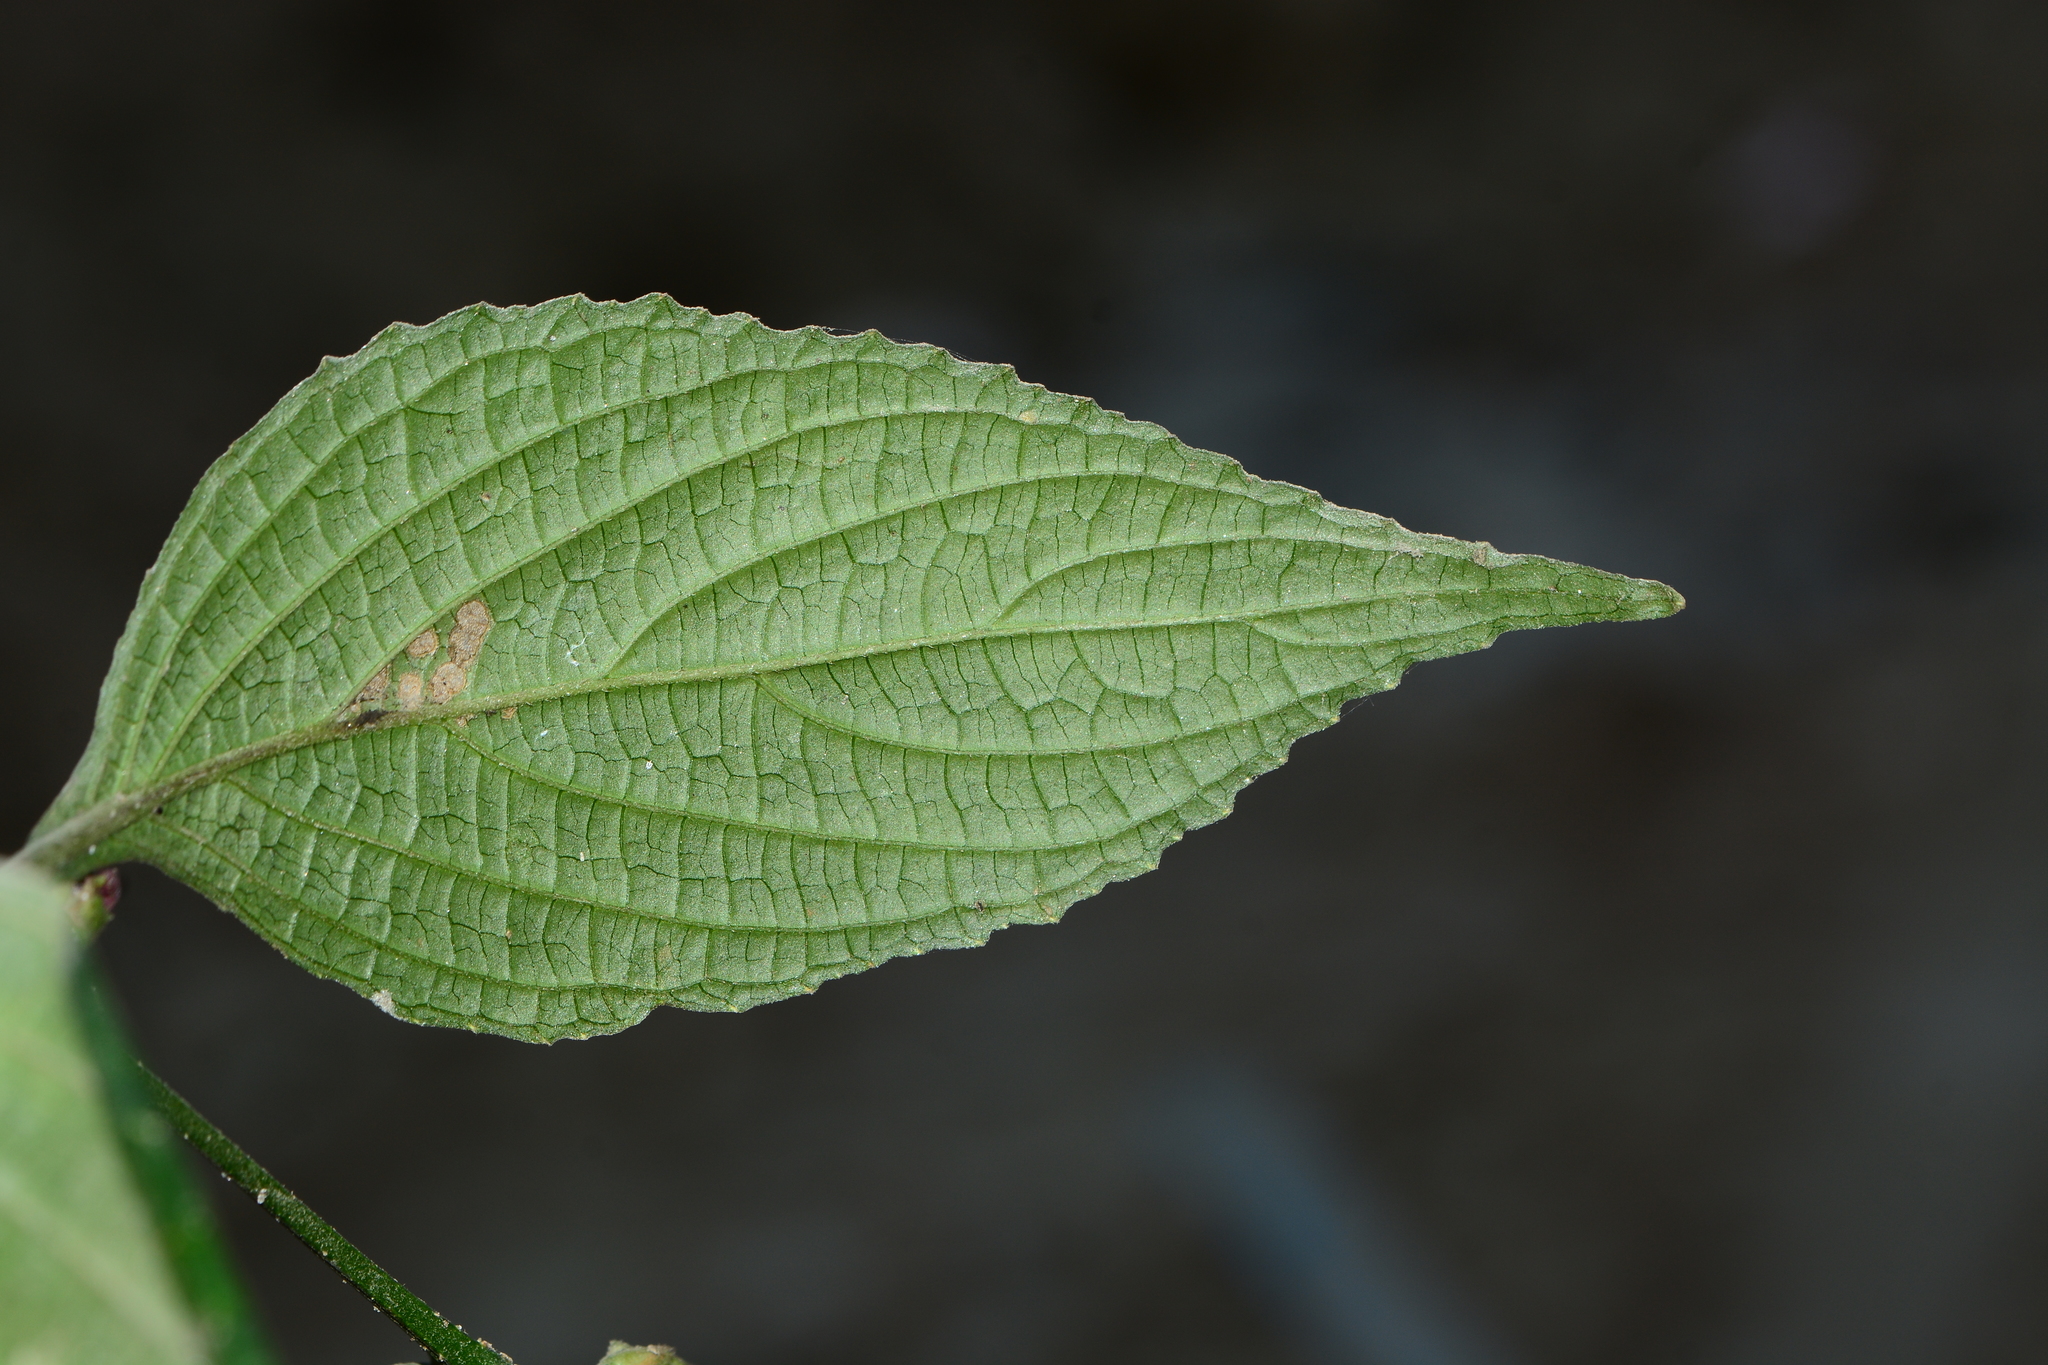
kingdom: Plantae
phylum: Tracheophyta
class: Magnoliopsida
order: Lamiales
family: Acanthaceae
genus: Strobilanthes
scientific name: Strobilanthes capitata
